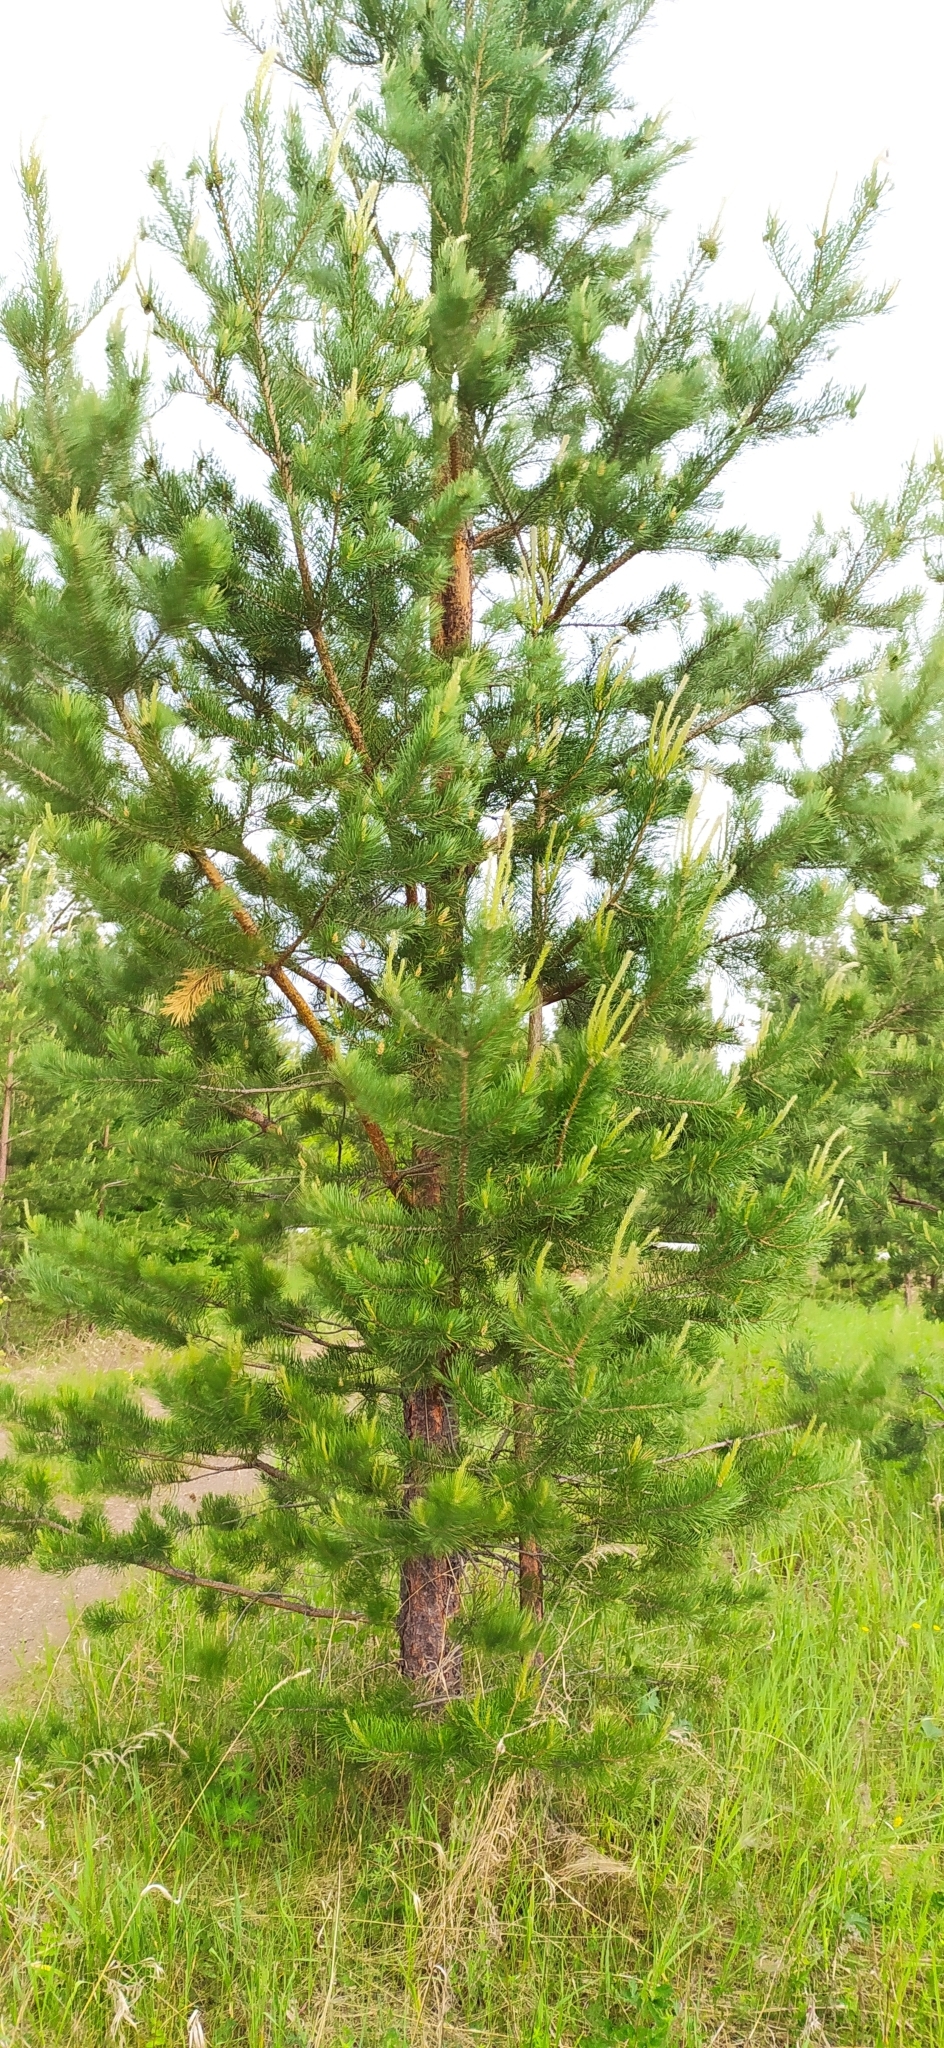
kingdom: Plantae
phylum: Tracheophyta
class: Pinopsida
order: Pinales
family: Pinaceae
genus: Pinus
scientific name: Pinus sylvestris
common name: Scots pine
